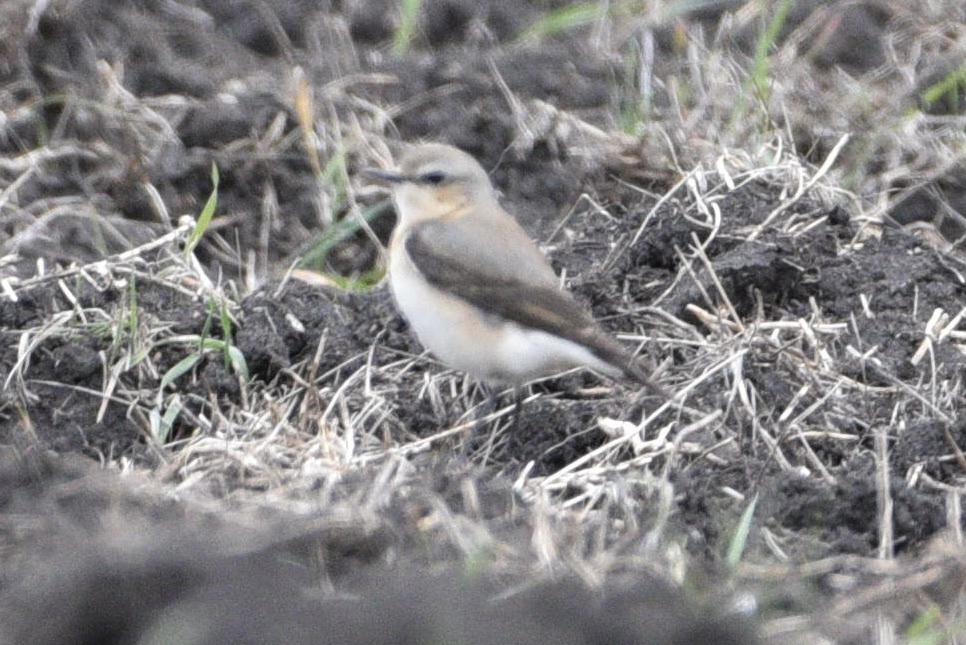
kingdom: Animalia
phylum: Chordata
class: Aves
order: Passeriformes
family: Muscicapidae
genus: Oenanthe
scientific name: Oenanthe oenanthe
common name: Northern wheatear
